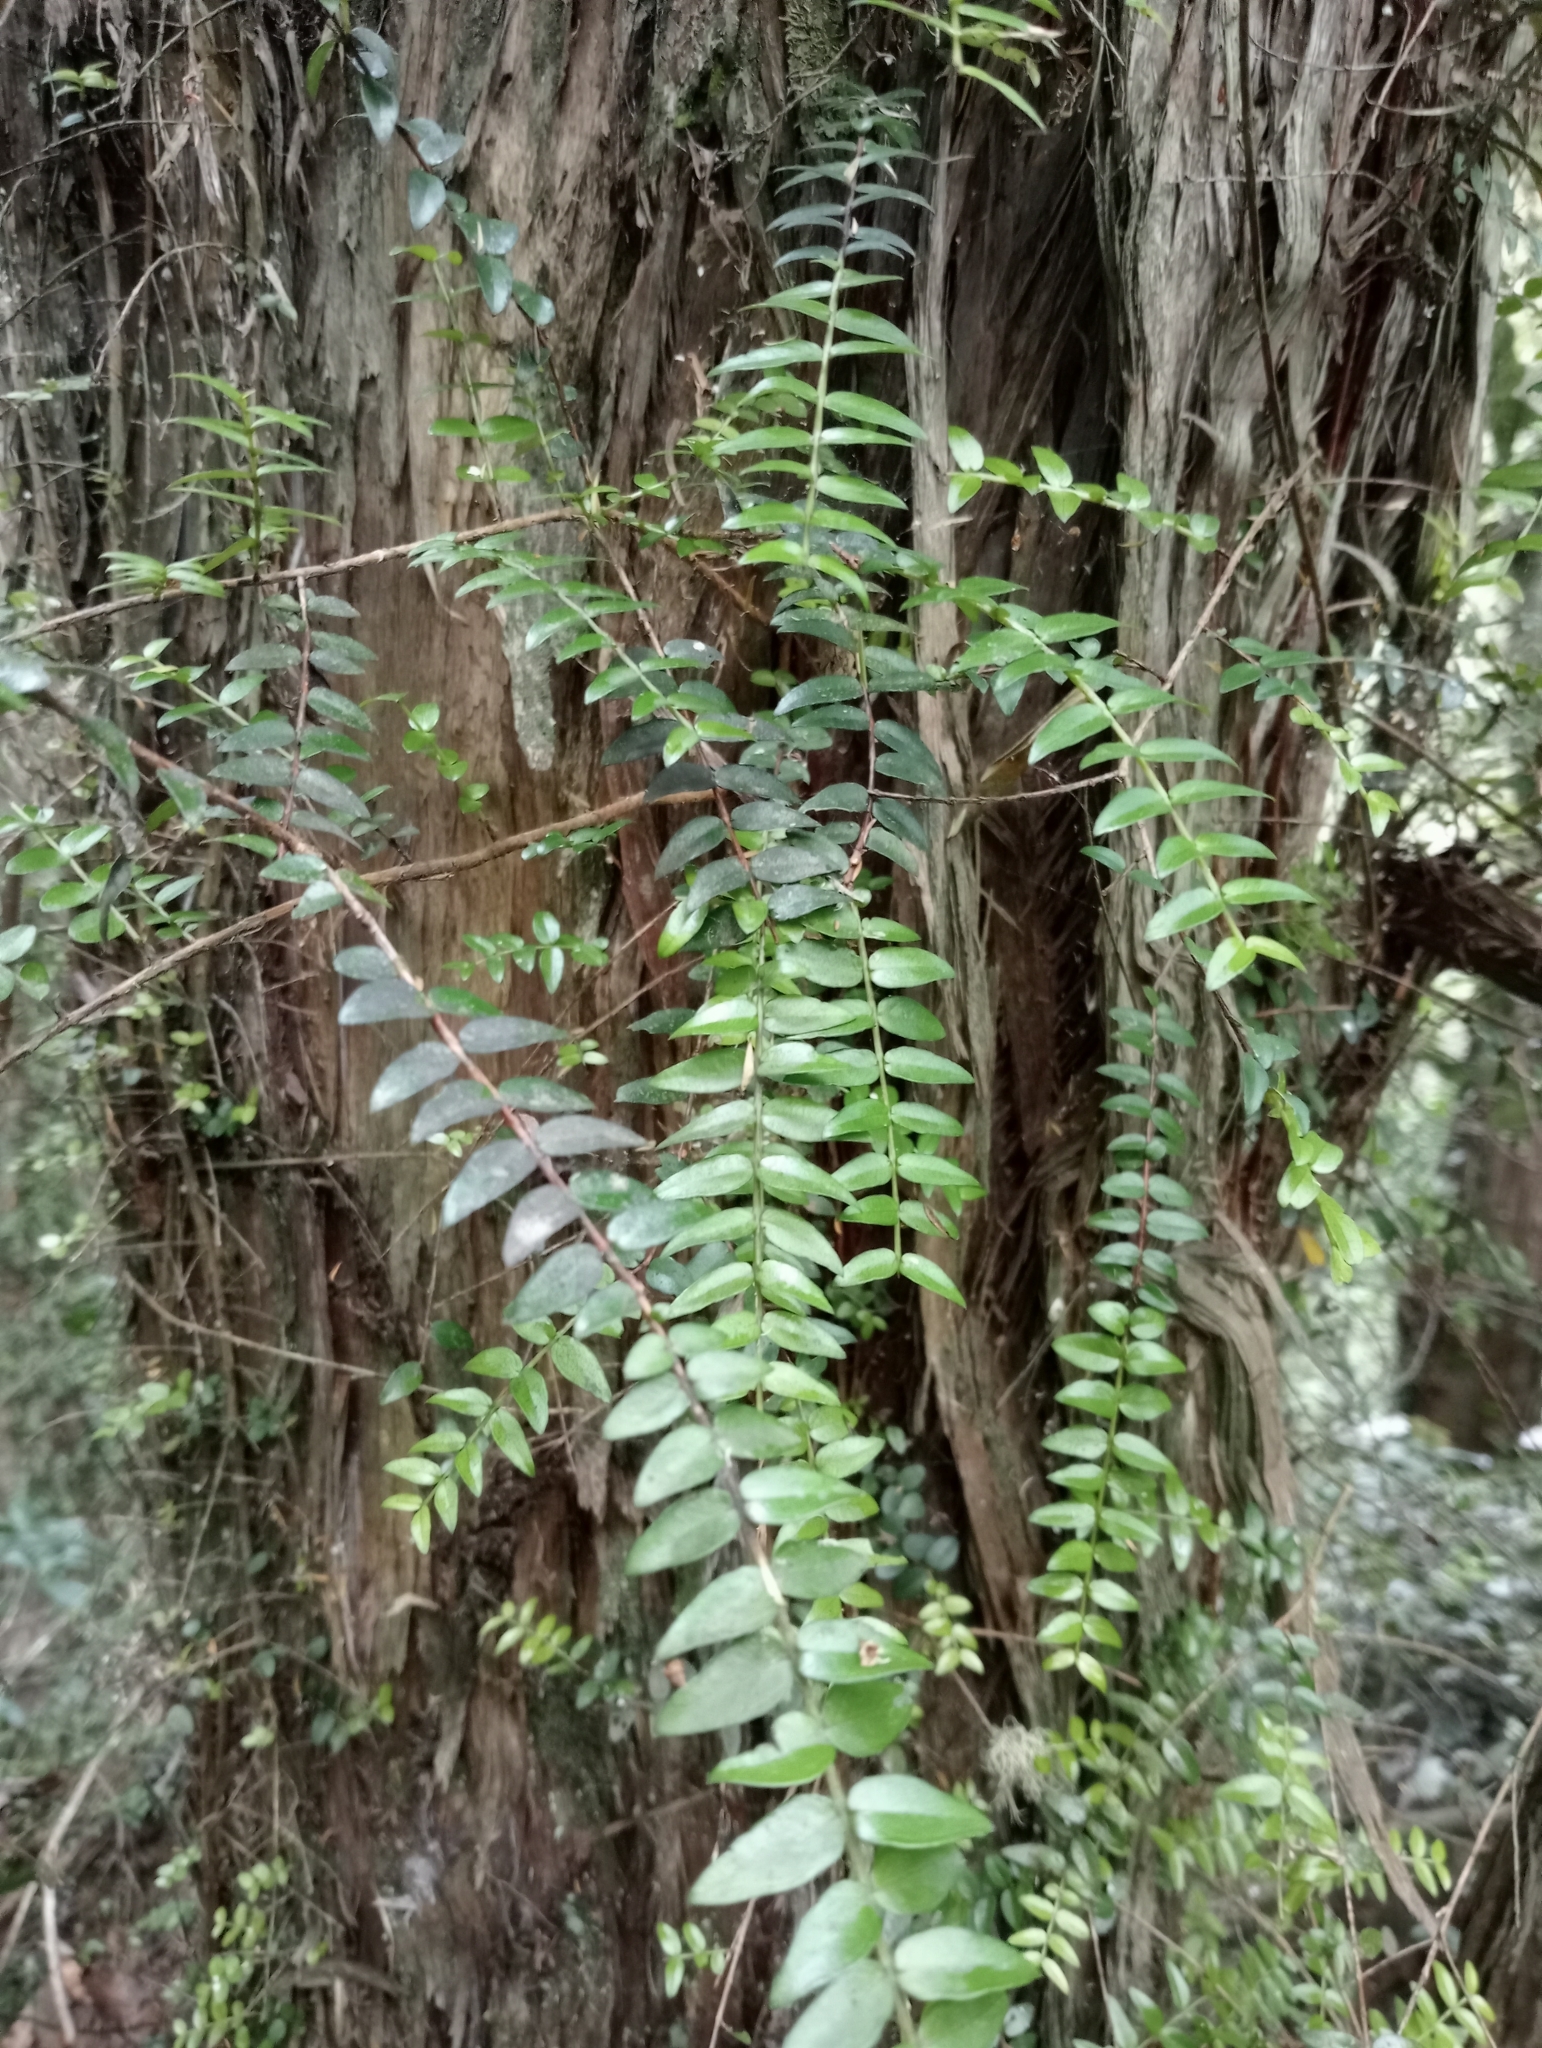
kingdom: Plantae
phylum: Tracheophyta
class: Magnoliopsida
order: Myrtales
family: Myrtaceae
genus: Metrosideros
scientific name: Metrosideros diffusa
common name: Small ratavine
